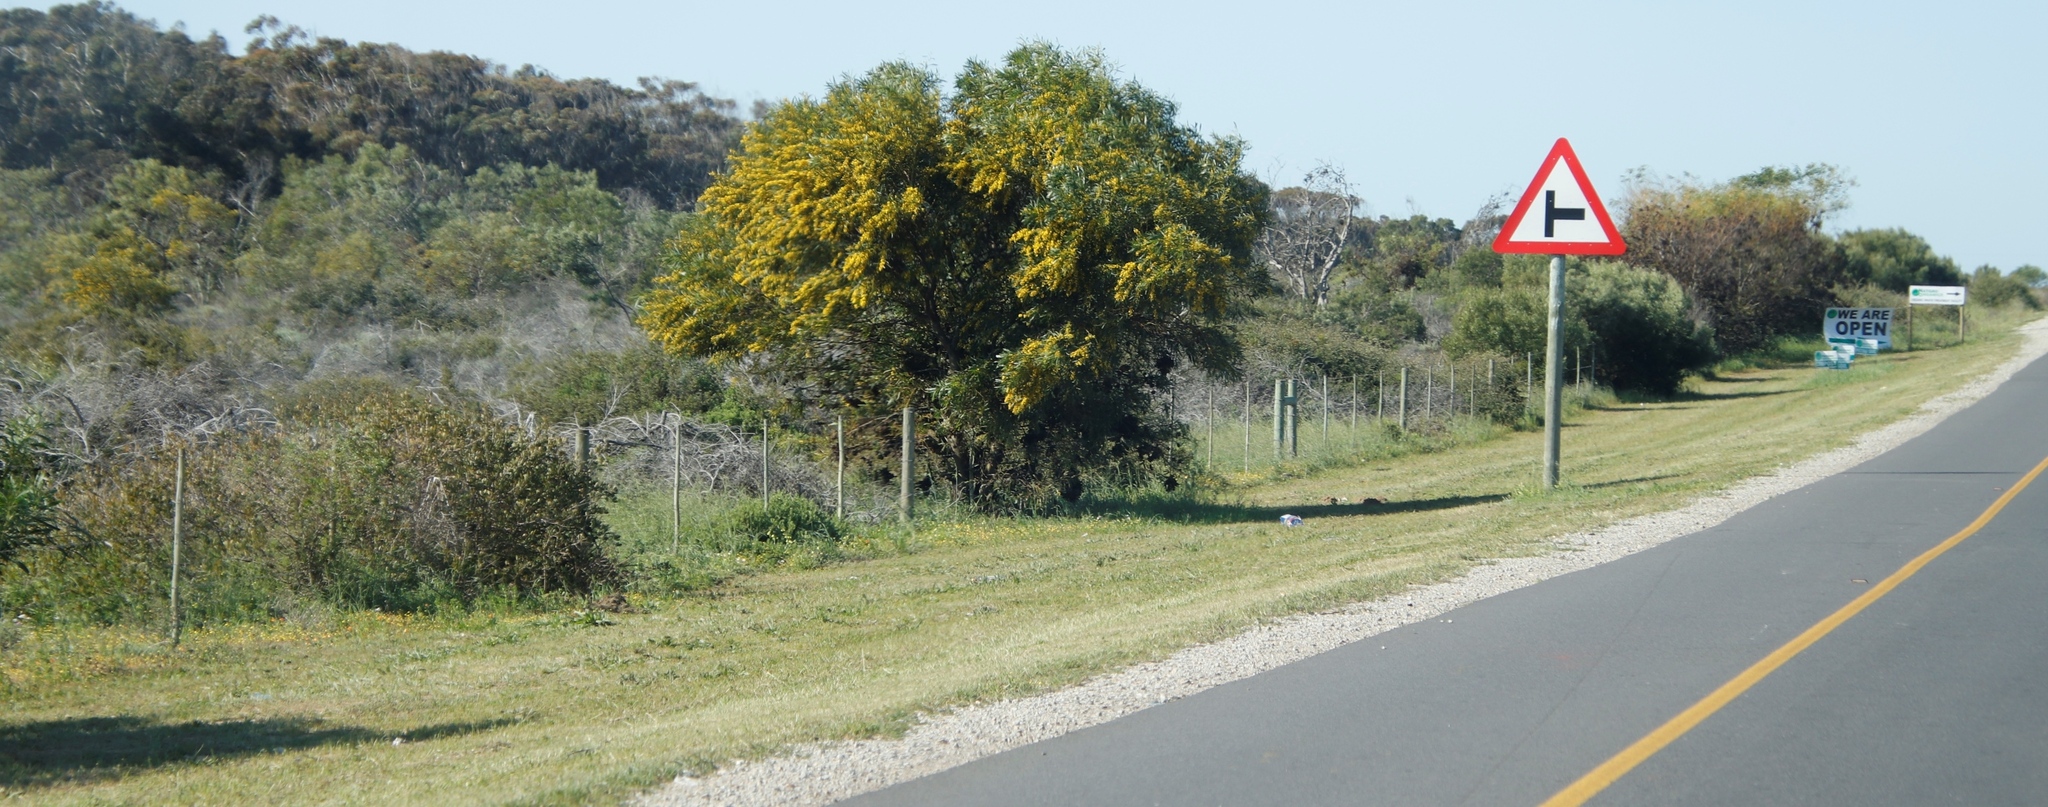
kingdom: Plantae
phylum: Tracheophyta
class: Magnoliopsida
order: Fabales
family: Fabaceae
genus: Acacia
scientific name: Acacia saligna
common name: Orange wattle
